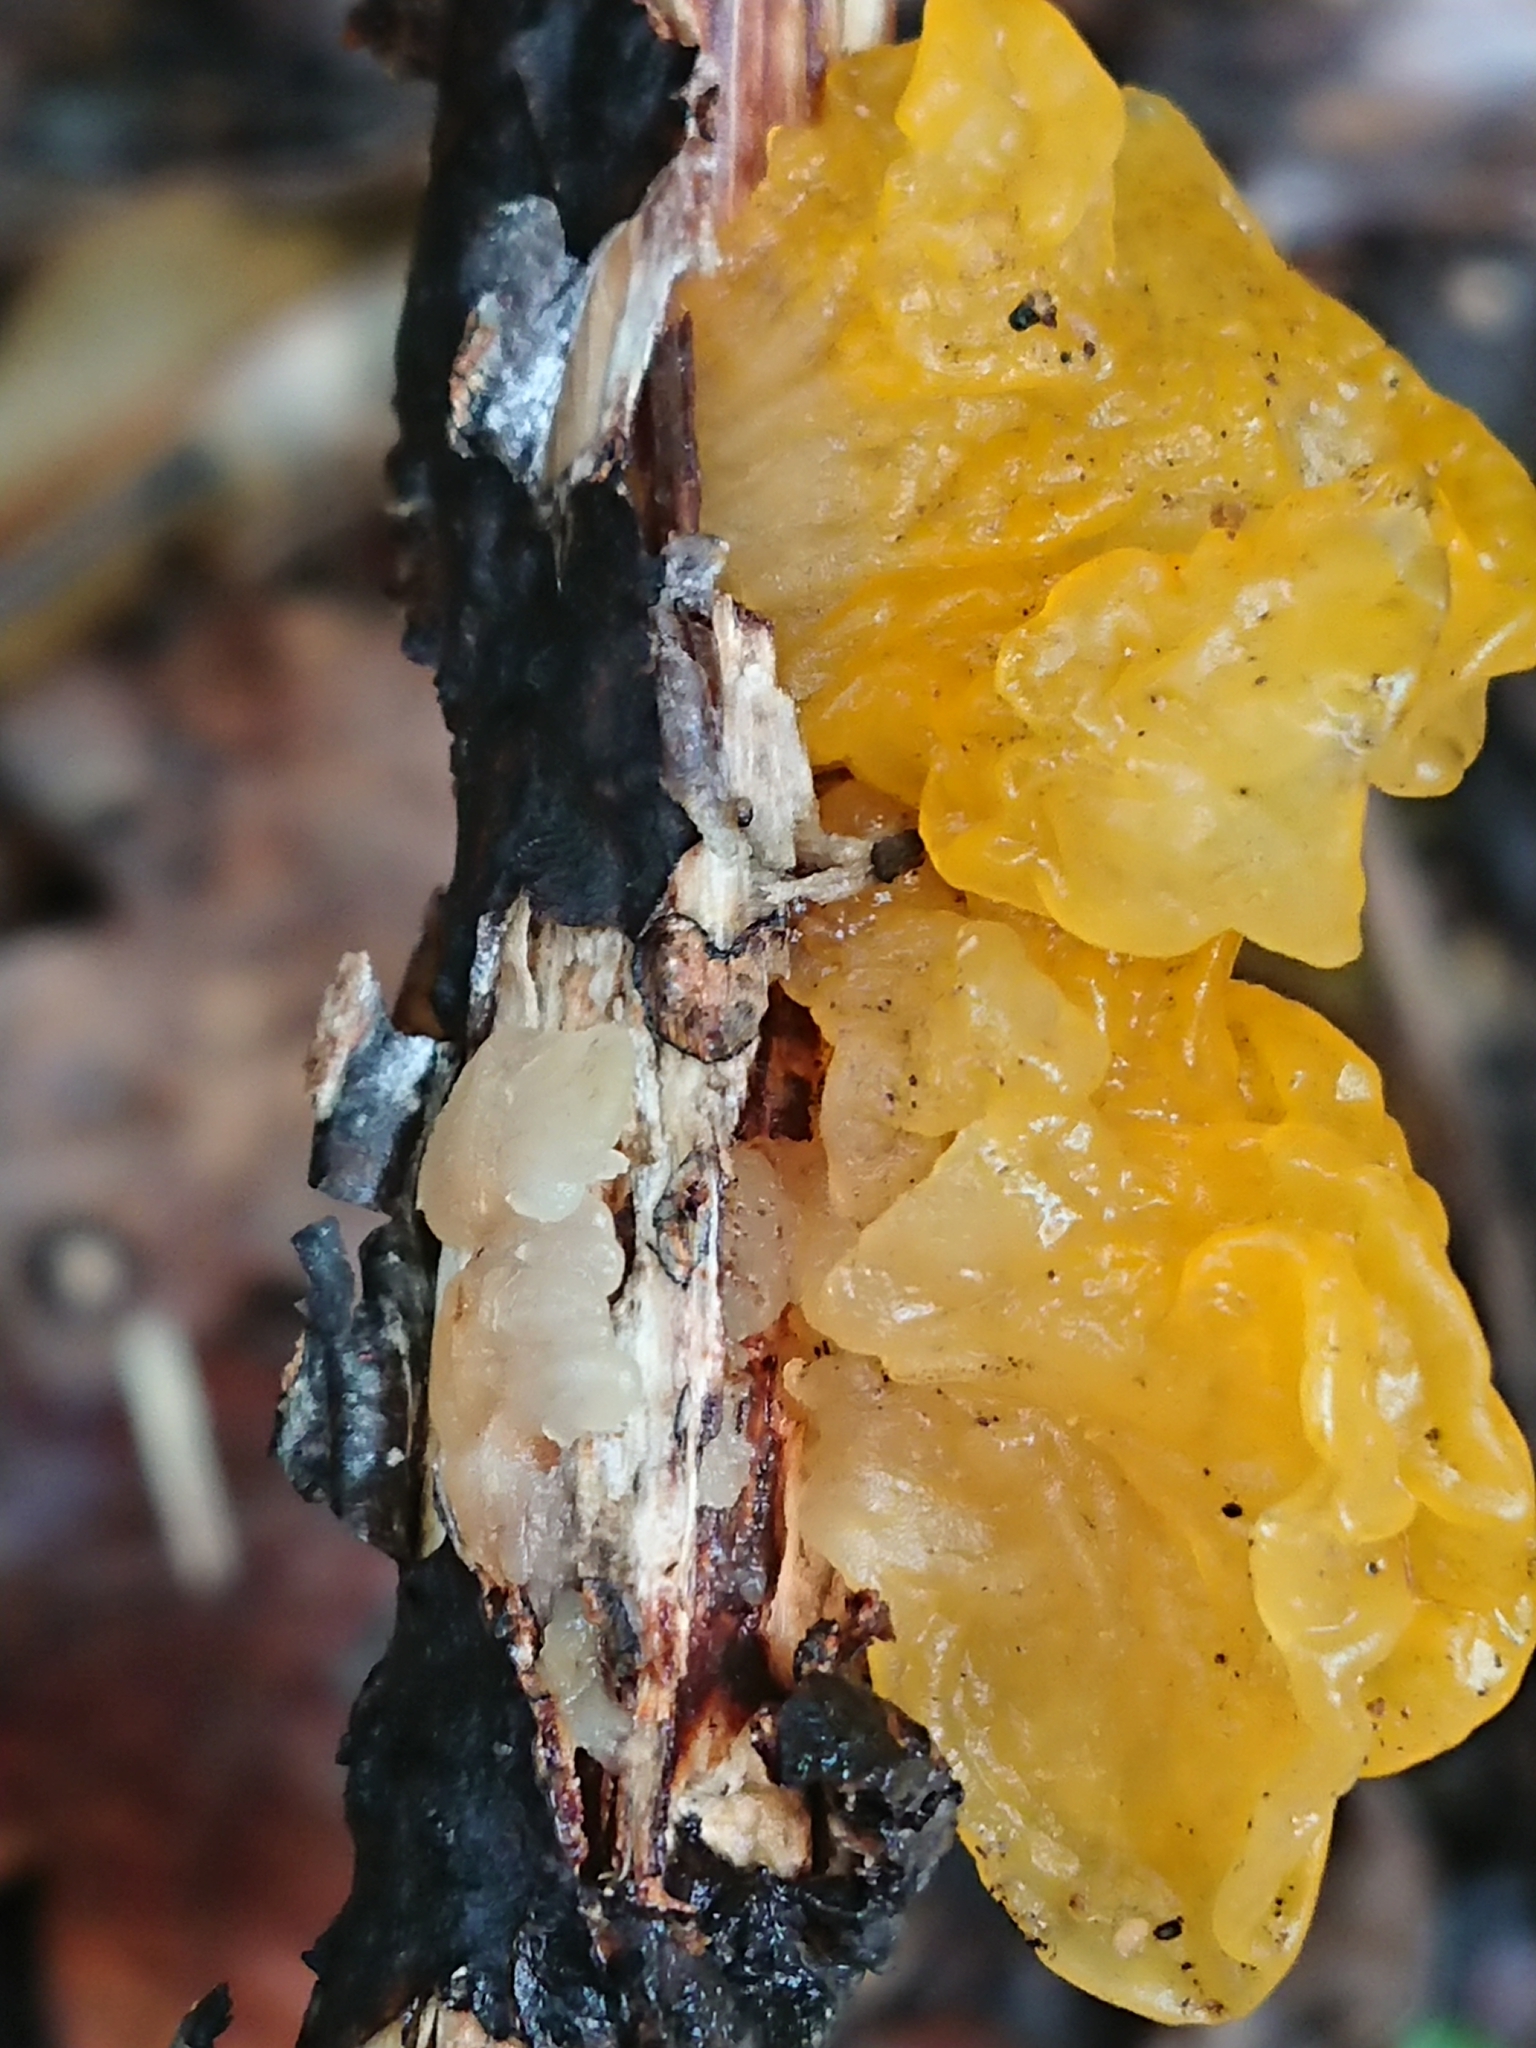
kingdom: Fungi
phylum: Basidiomycota
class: Tremellomycetes
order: Tremellales
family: Tremellaceae
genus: Tremella
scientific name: Tremella mesenterica
